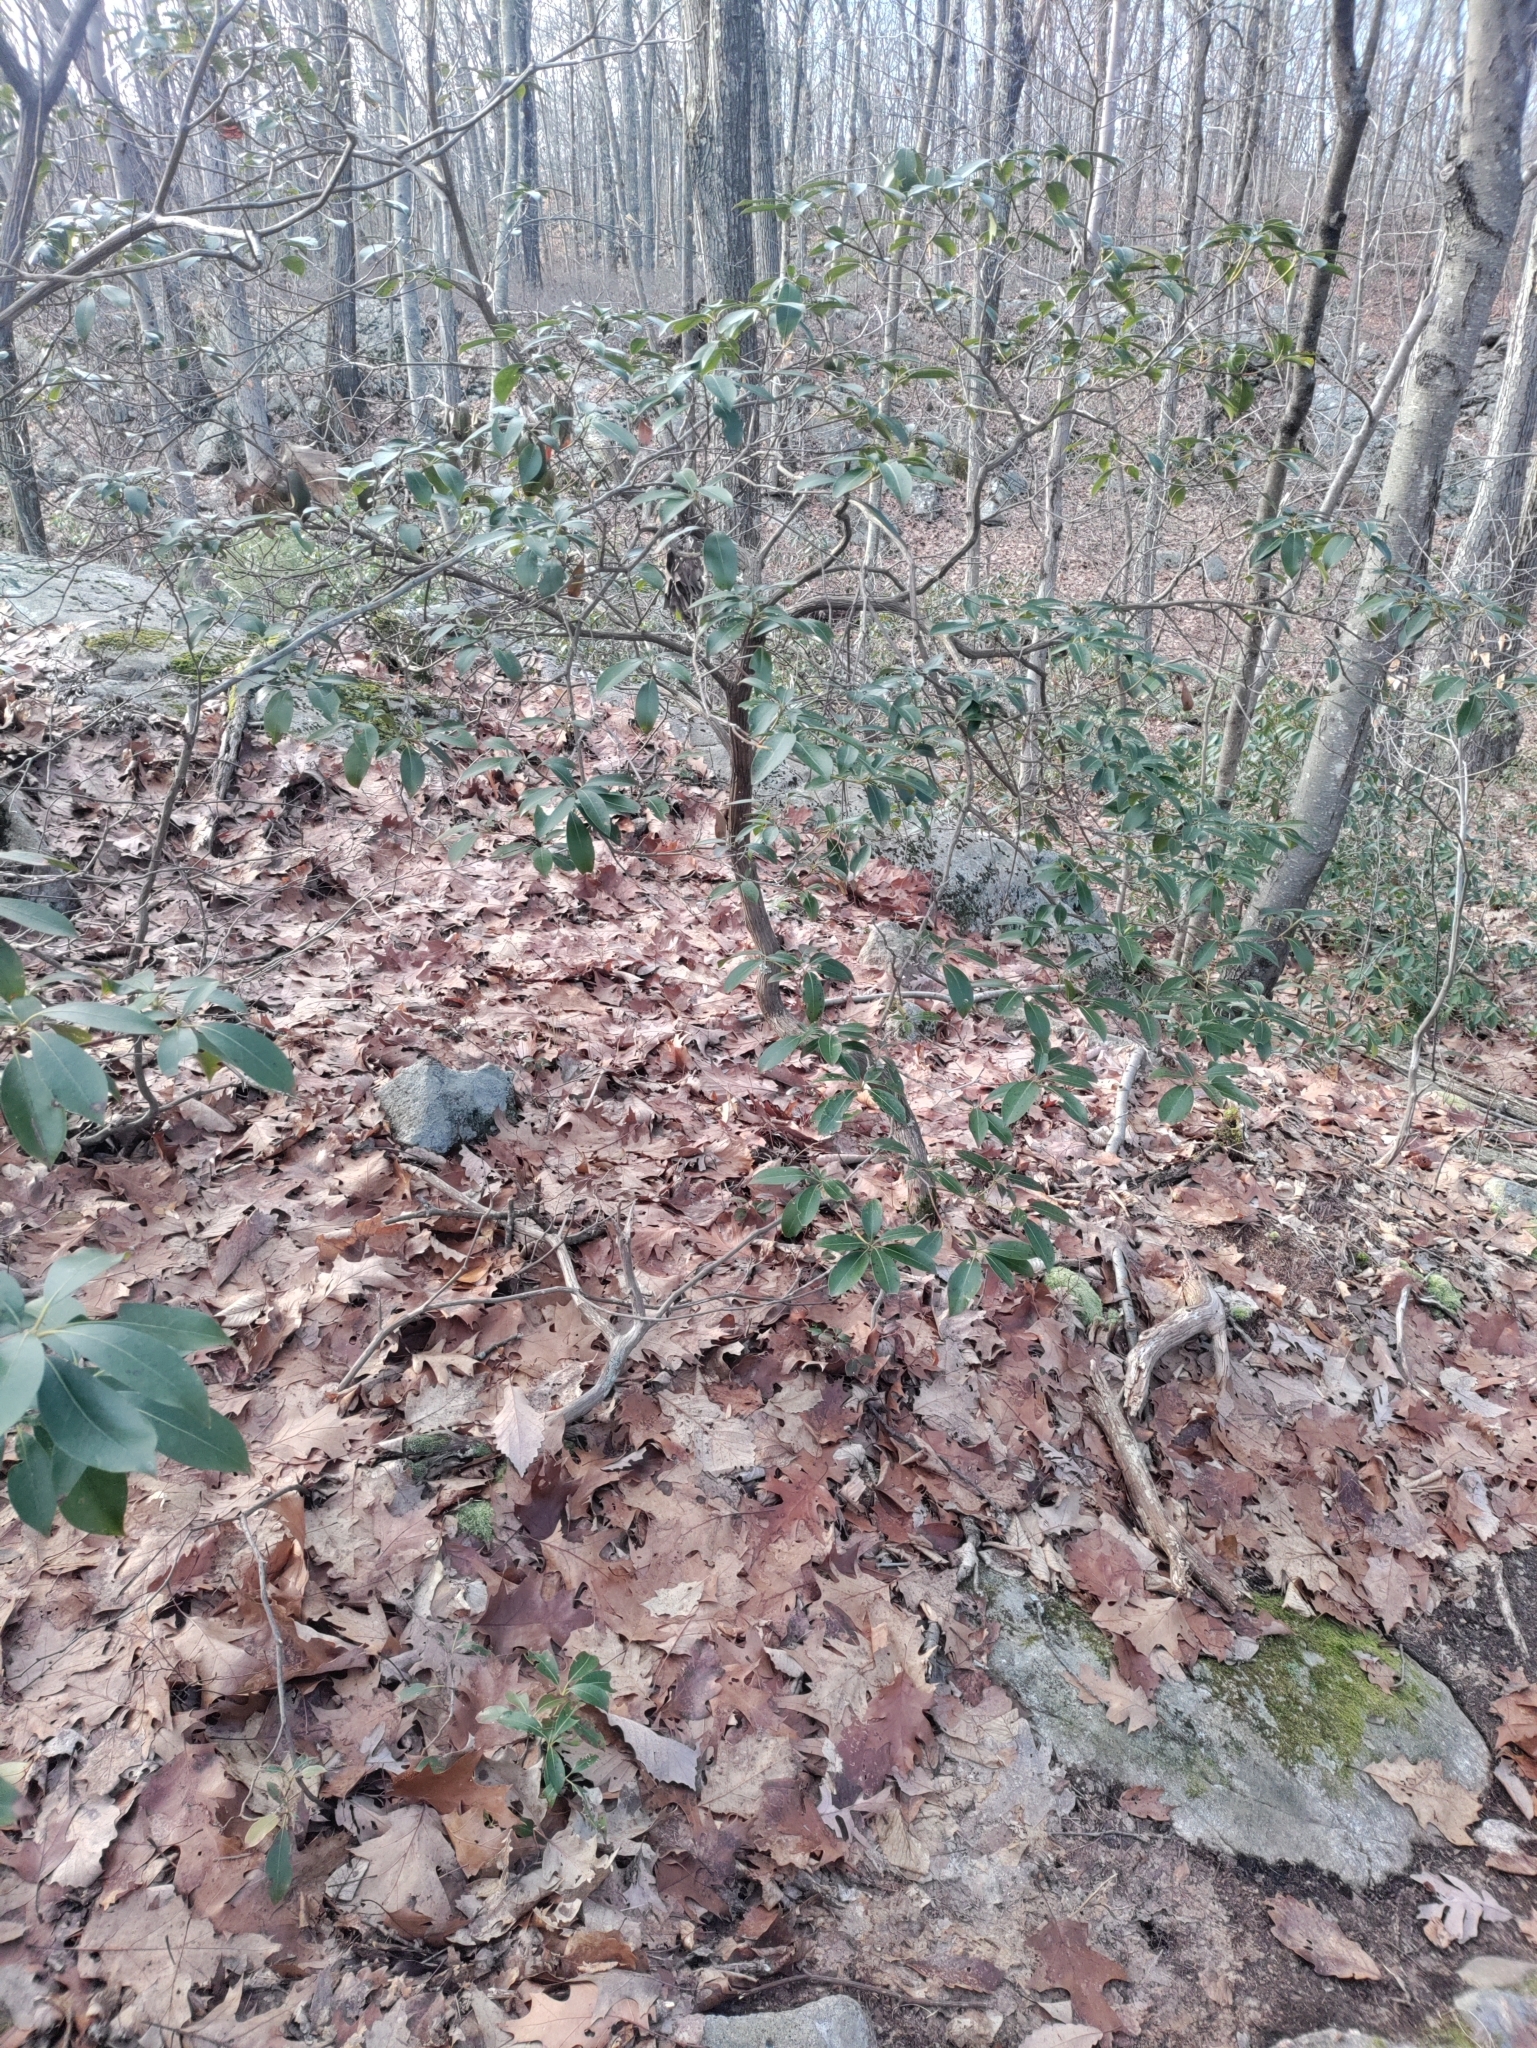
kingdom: Plantae
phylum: Tracheophyta
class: Magnoliopsida
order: Ericales
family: Ericaceae
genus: Kalmia
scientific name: Kalmia latifolia
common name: Mountain-laurel
